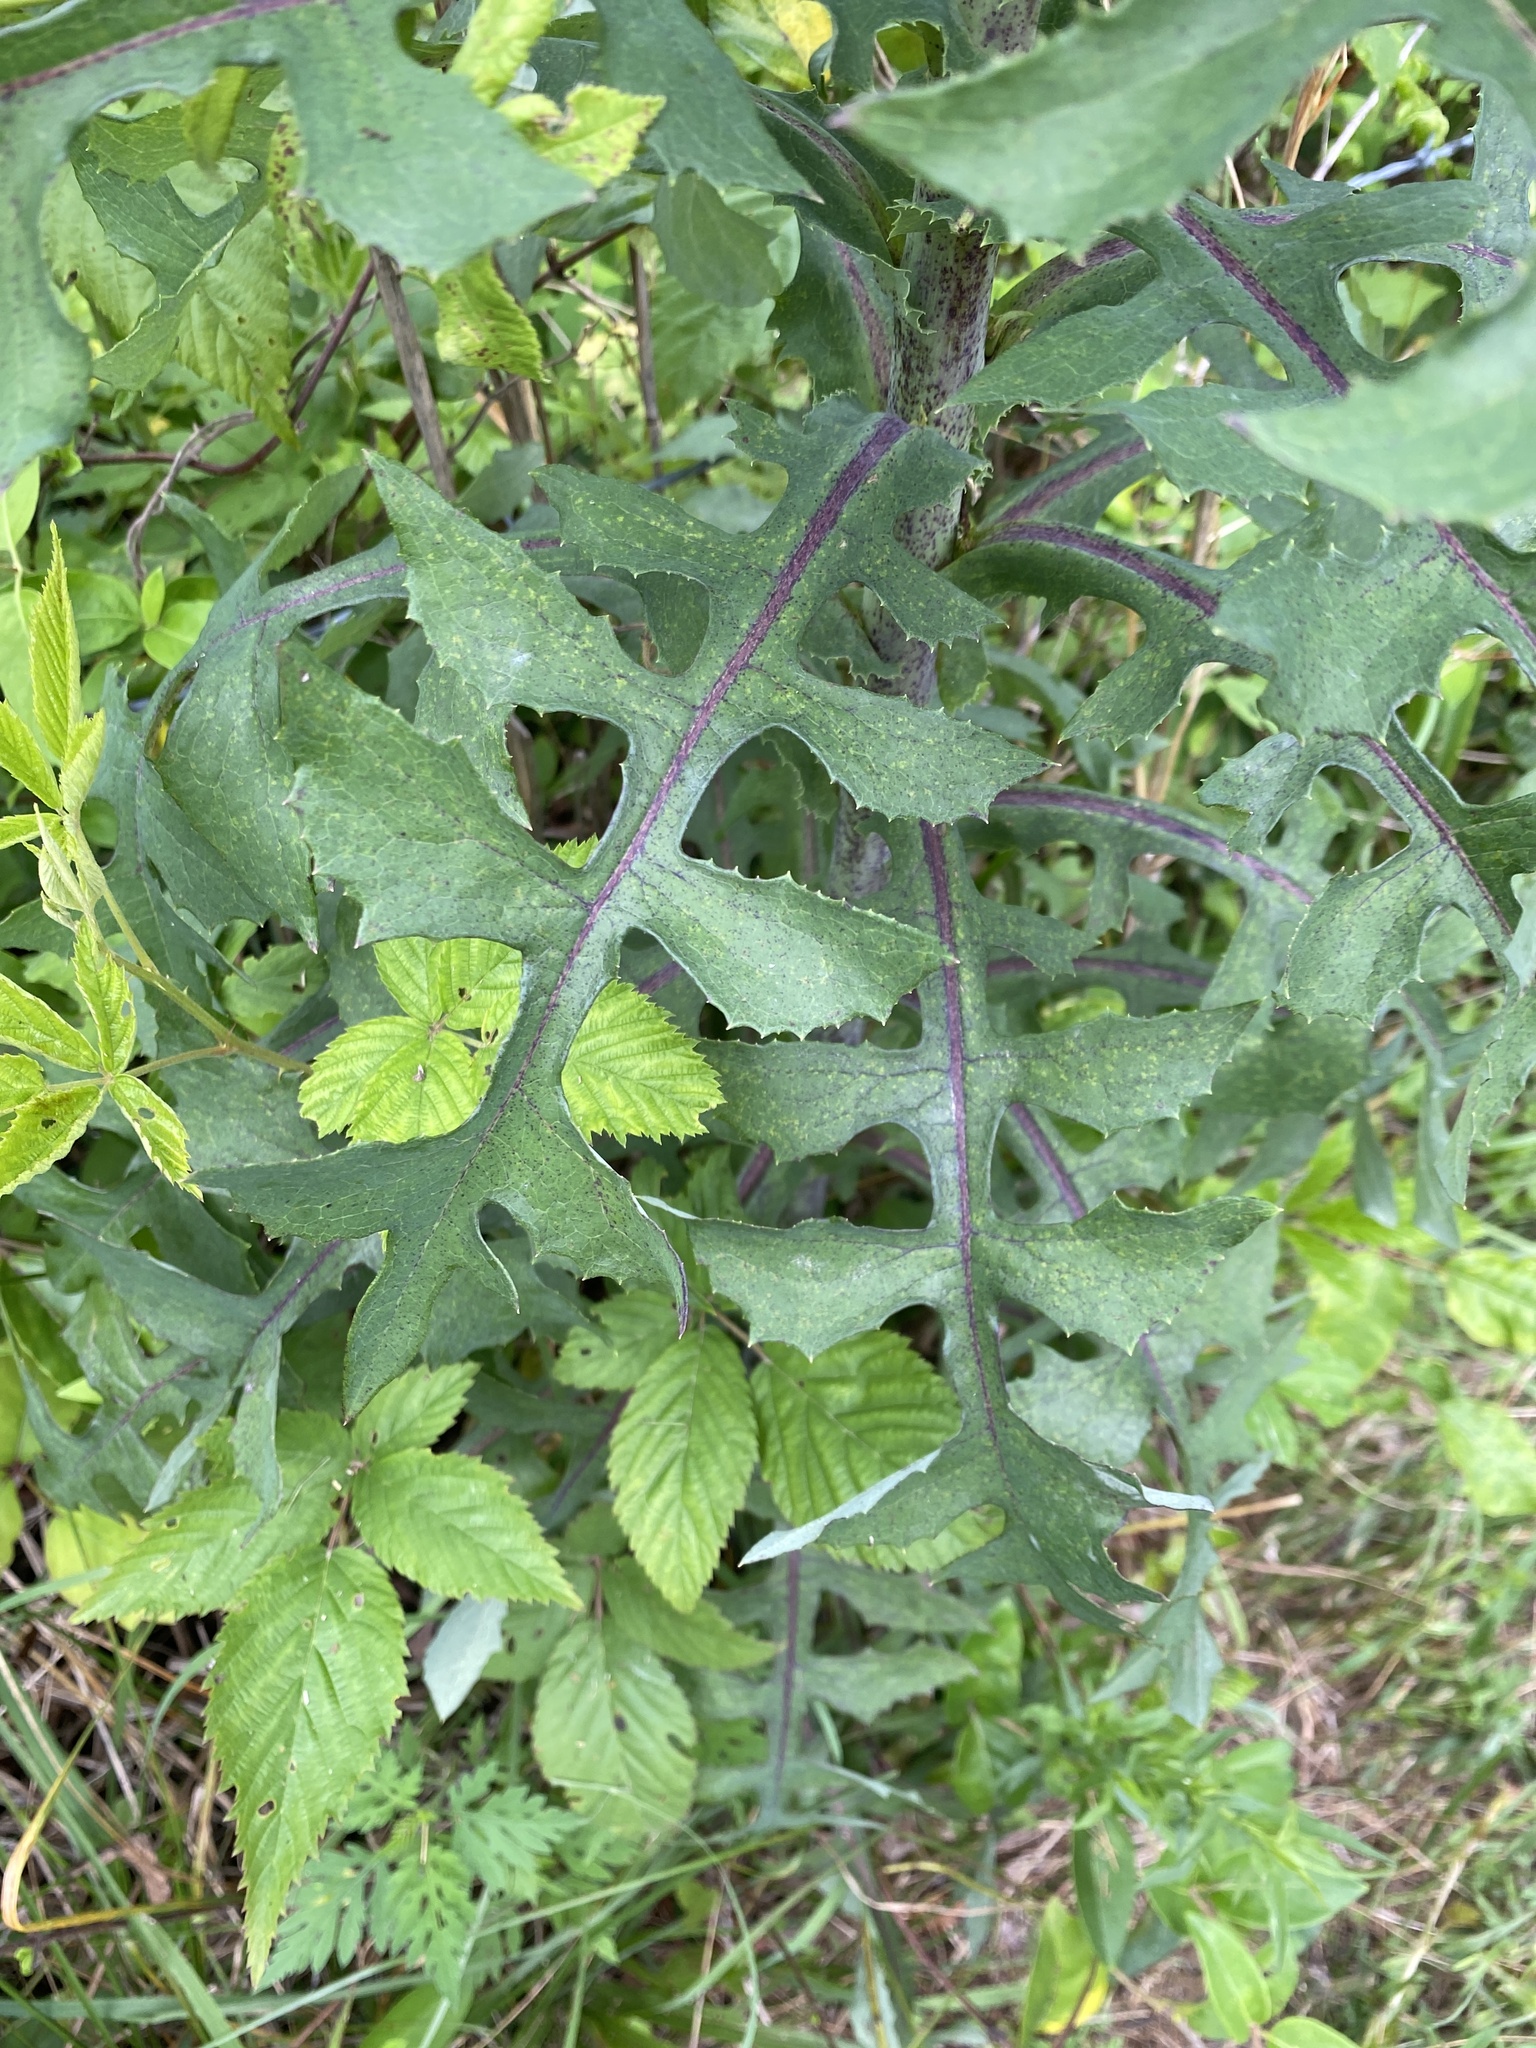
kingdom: Plantae
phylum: Tracheophyta
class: Magnoliopsida
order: Asterales
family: Asteraceae
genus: Lactuca
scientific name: Lactuca canadensis
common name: Canada lettuce
